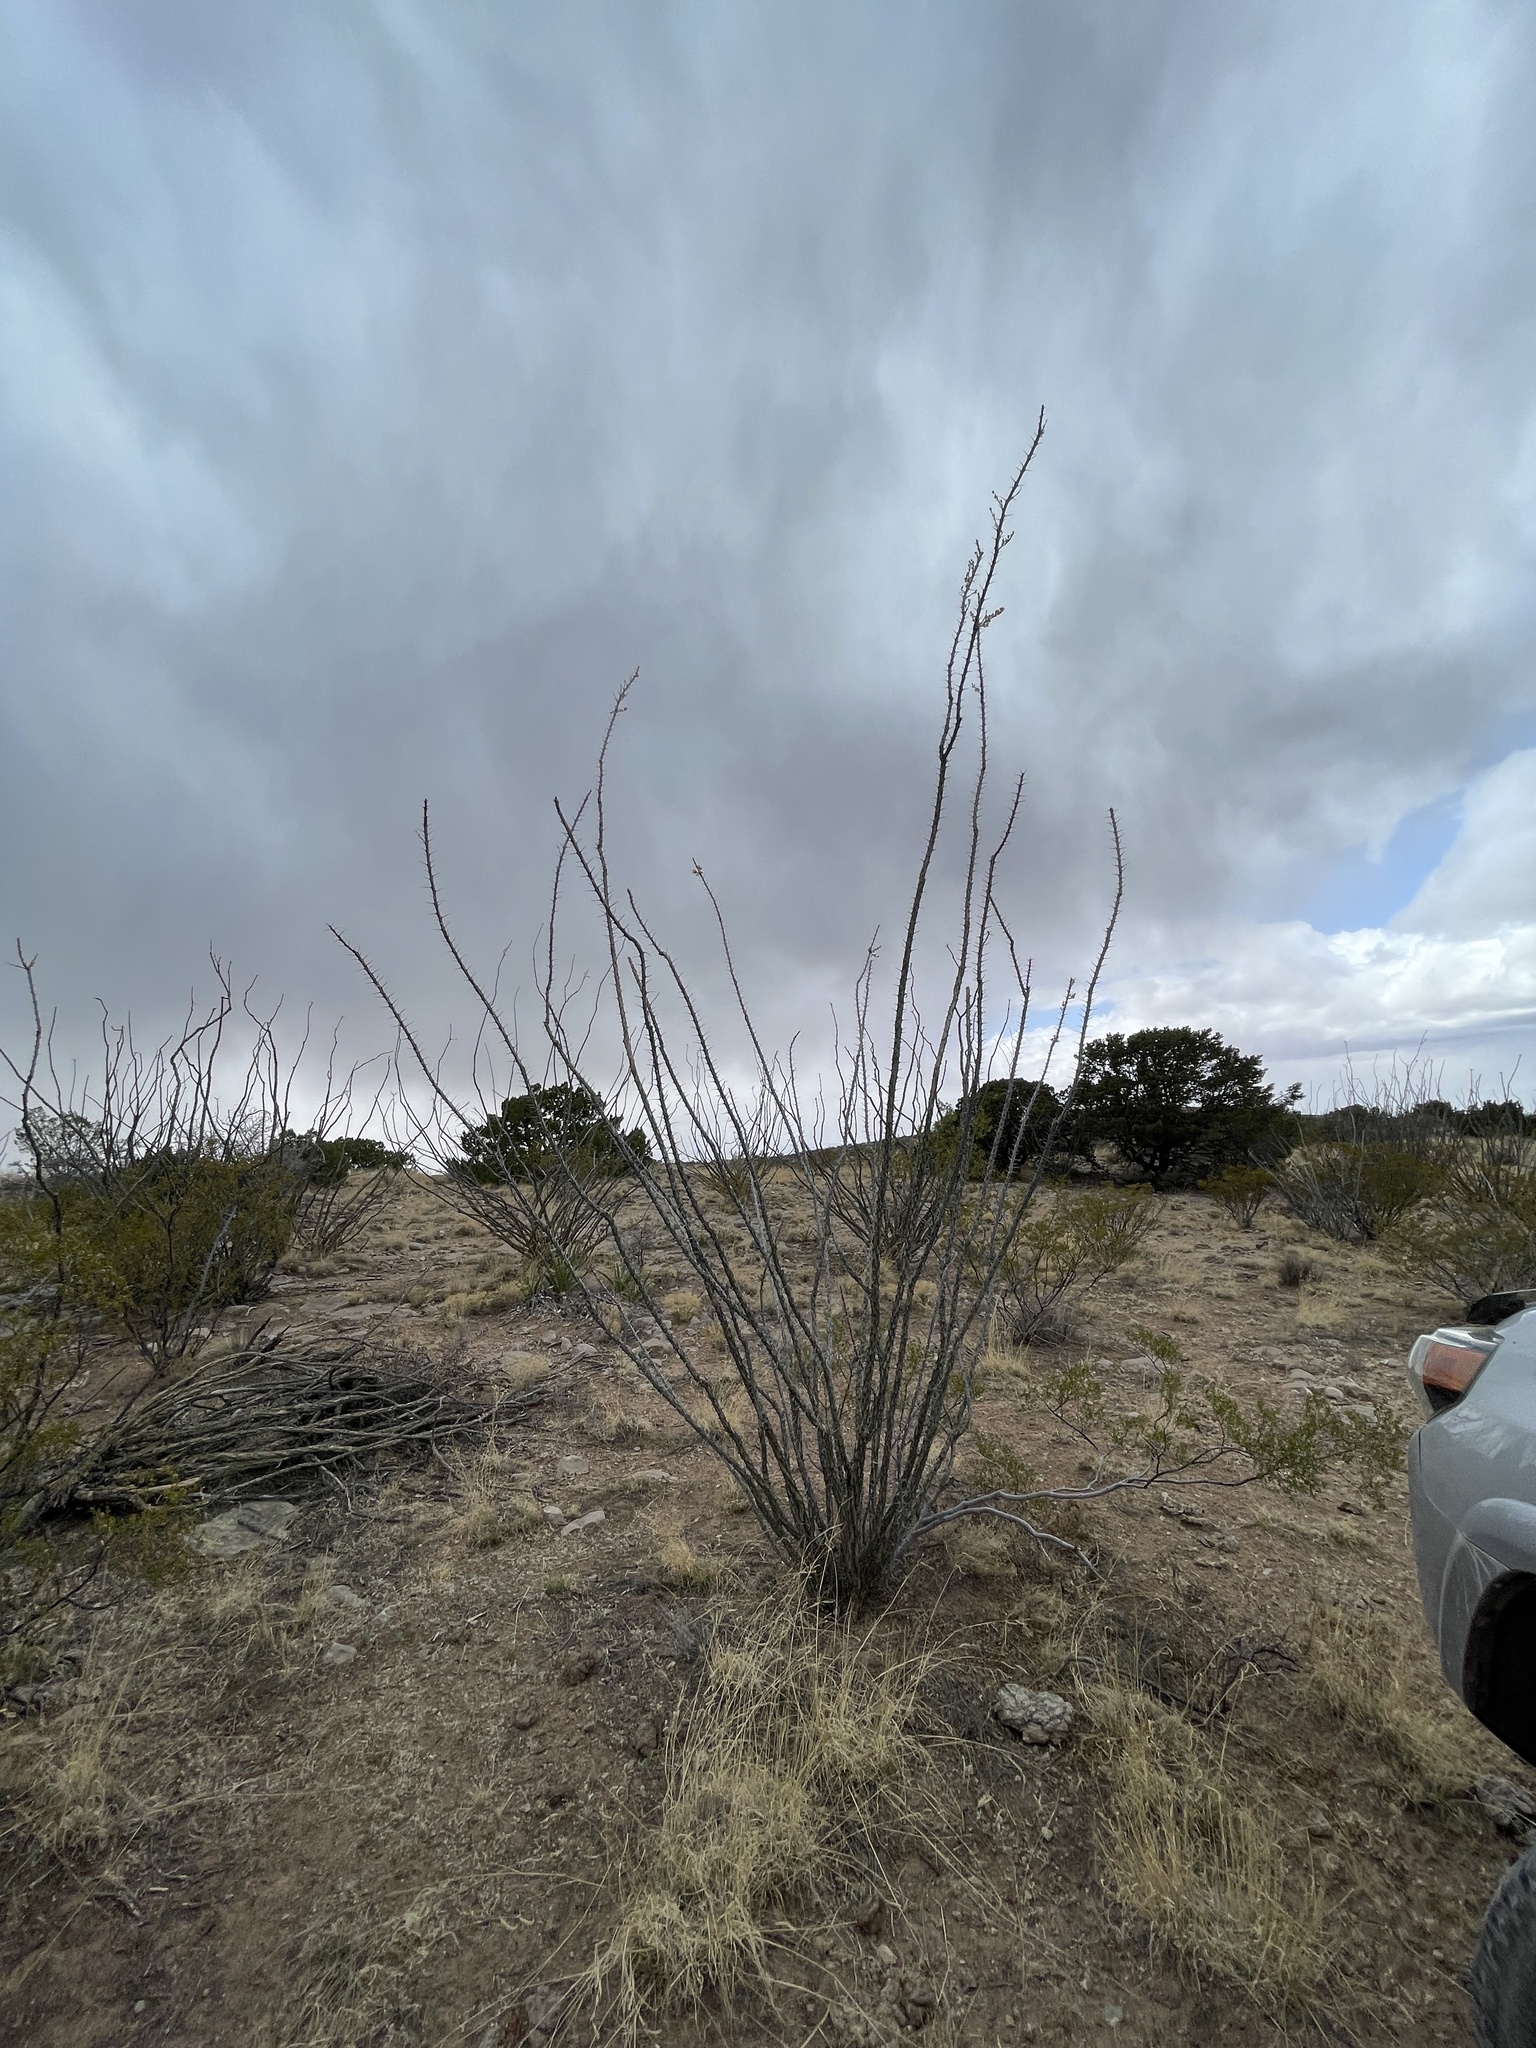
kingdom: Plantae
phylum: Tracheophyta
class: Magnoliopsida
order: Ericales
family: Fouquieriaceae
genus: Fouquieria
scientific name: Fouquieria splendens
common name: Vine-cactus
